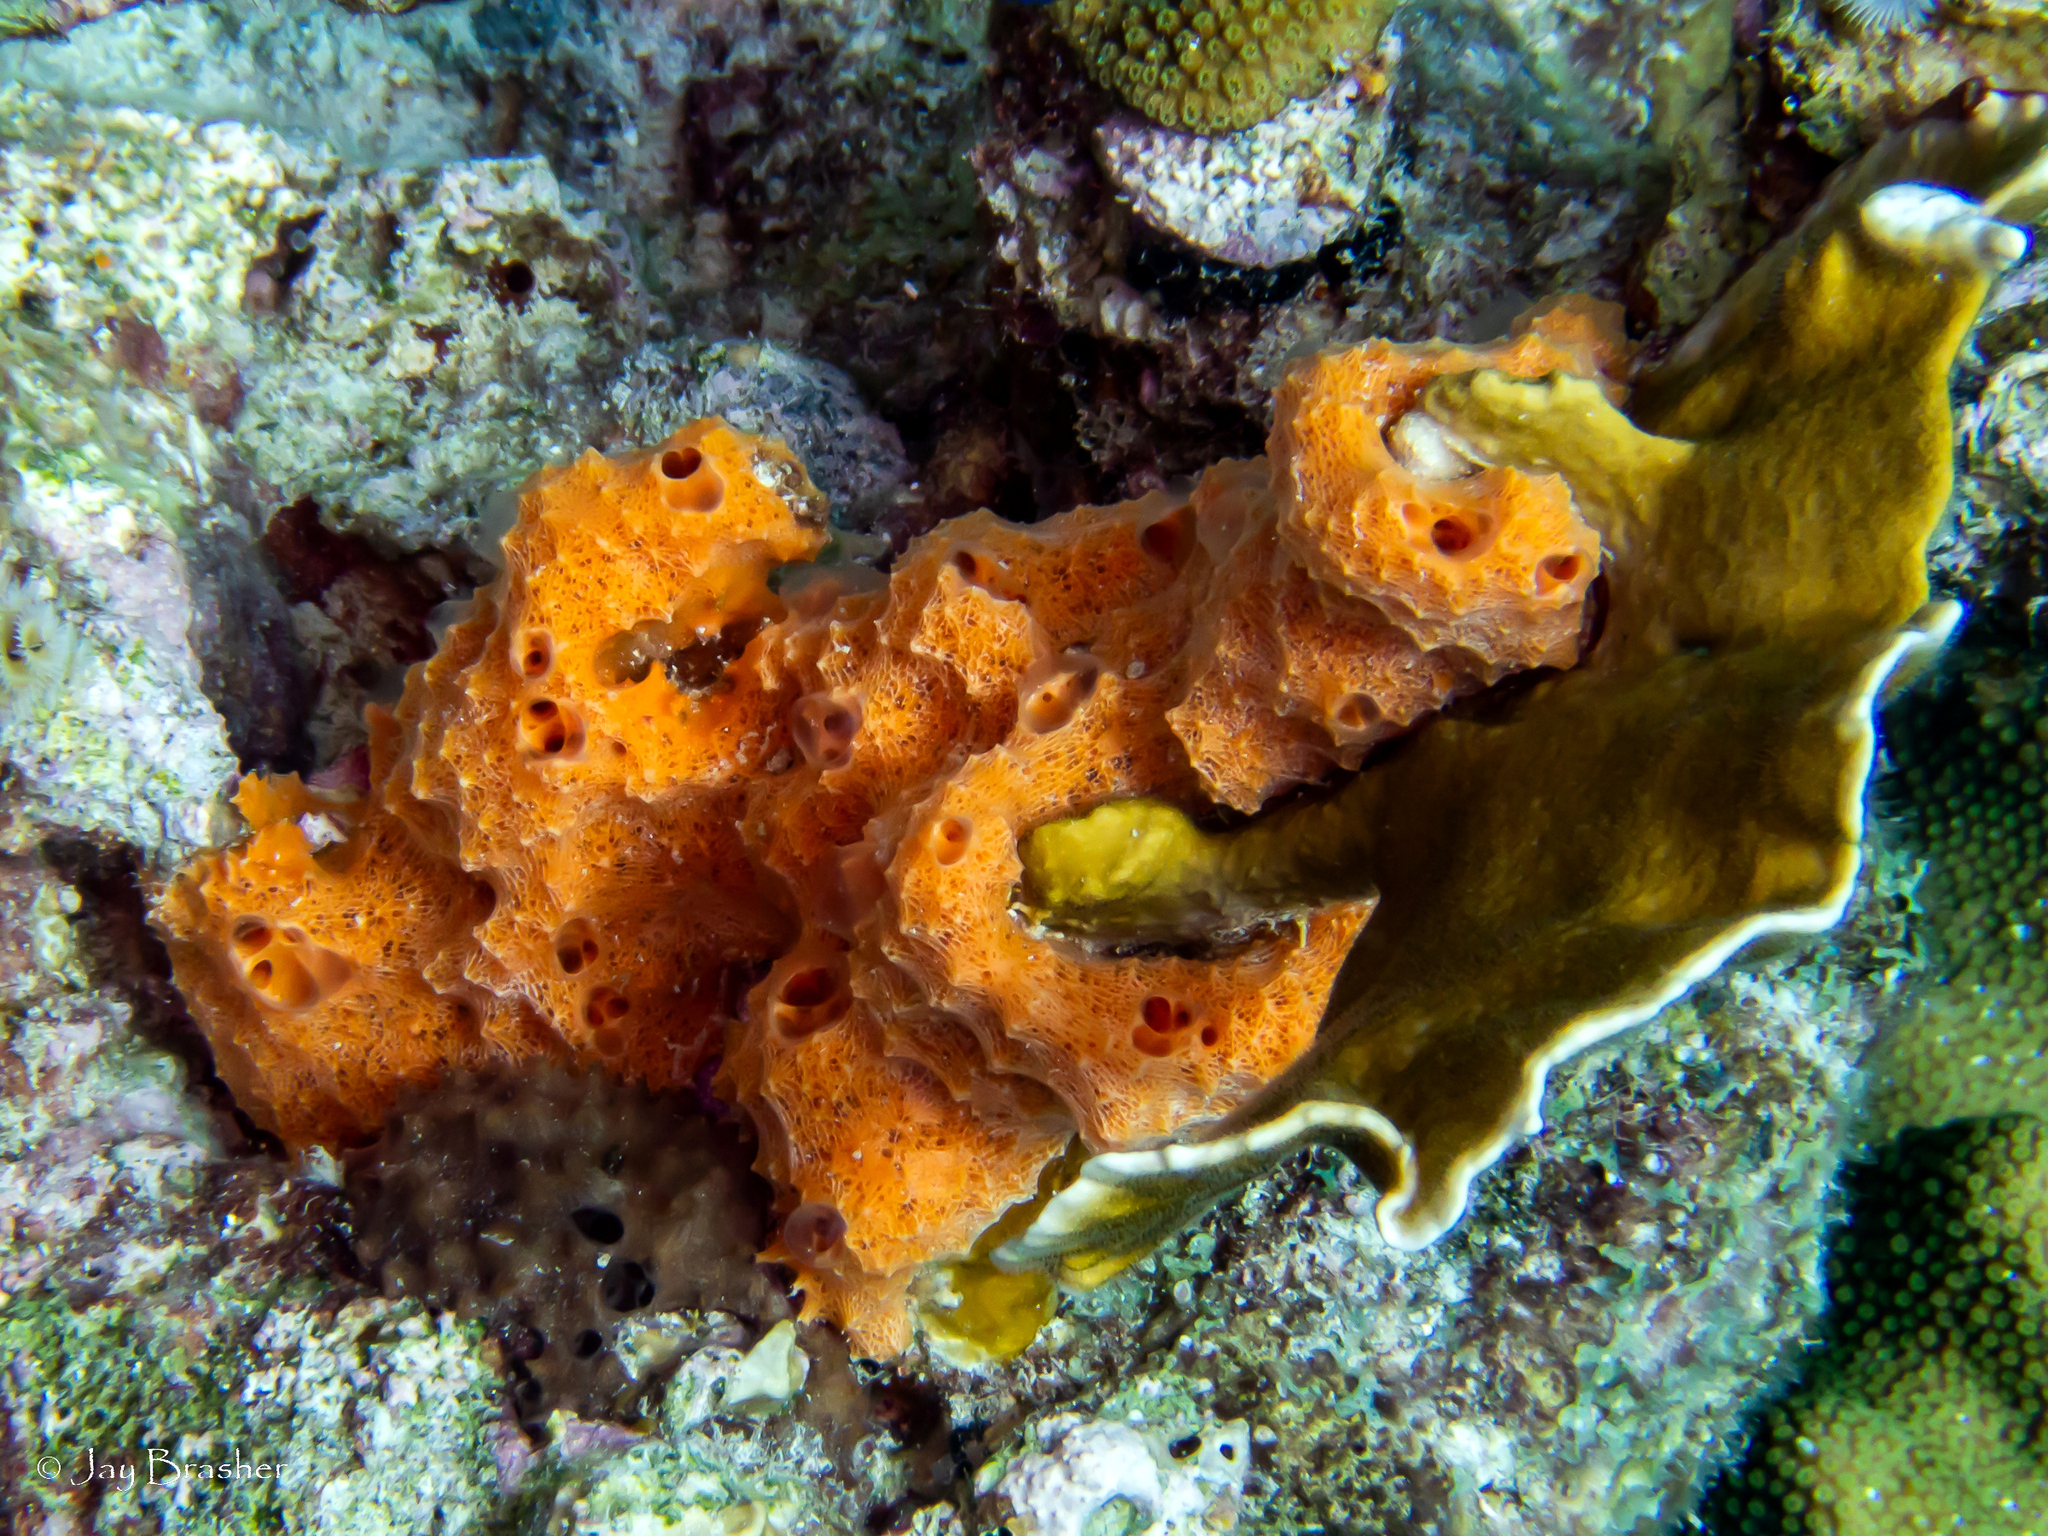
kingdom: Animalia
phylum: Cnidaria
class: Hydrozoa
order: Anthoathecata
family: Milleporidae
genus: Millepora
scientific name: Millepora complanata
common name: Bladed fire coral
